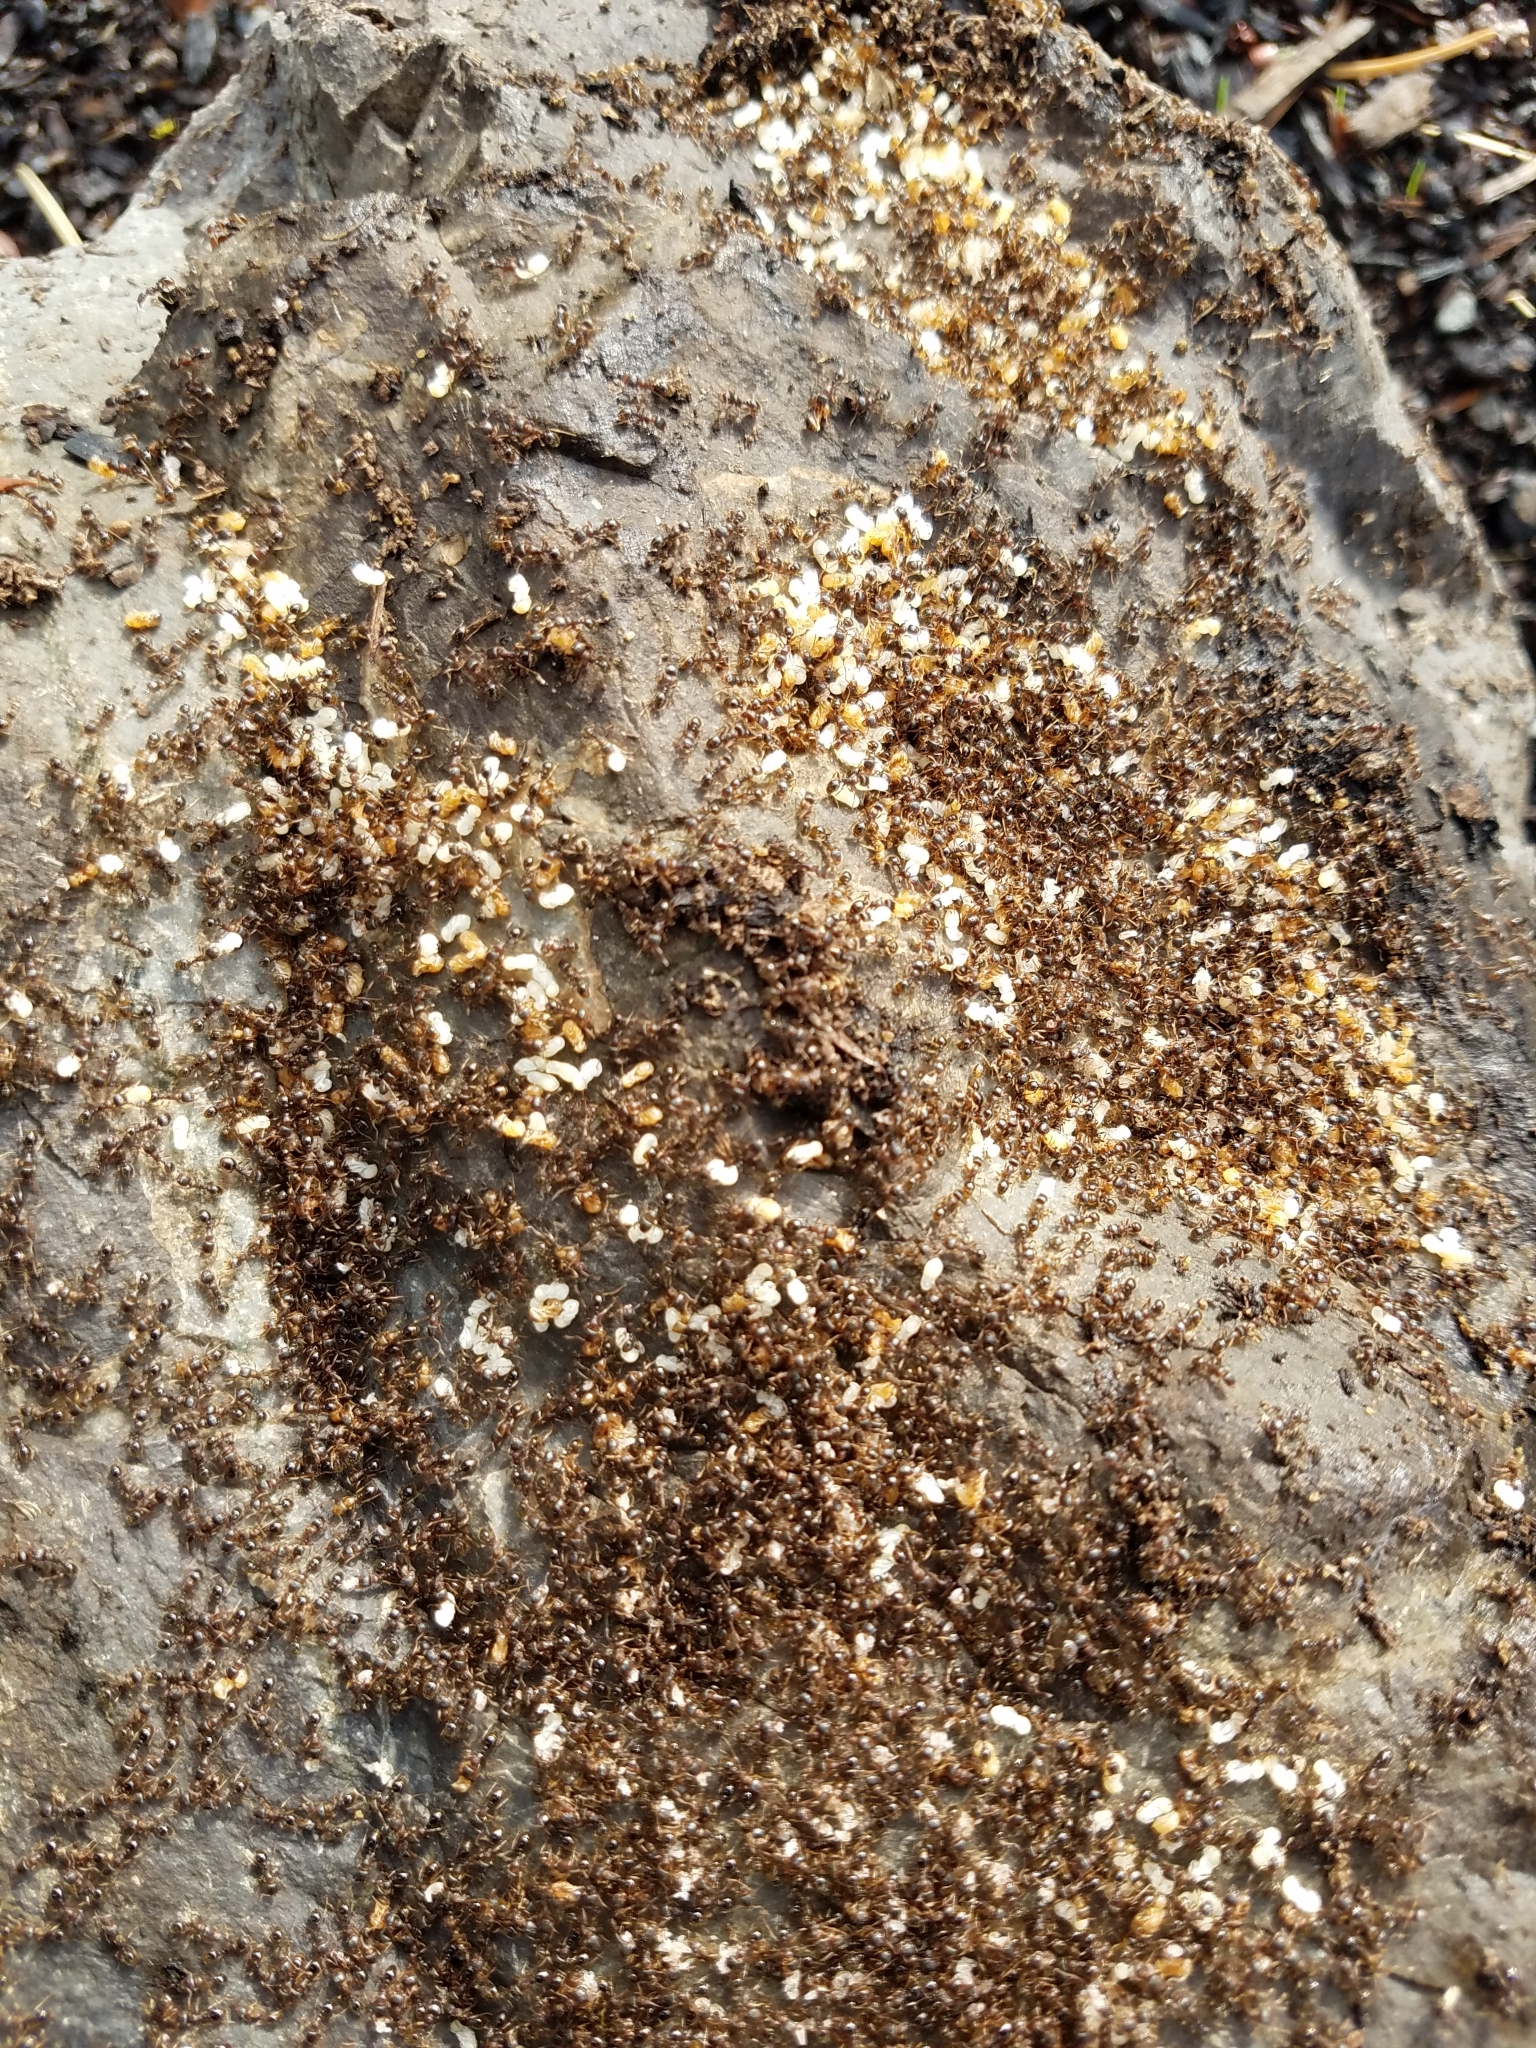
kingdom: Animalia
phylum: Arthropoda
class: Insecta
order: Hymenoptera
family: Formicidae
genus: Tetramorium
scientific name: Tetramorium immigrans
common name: Pavement ant
